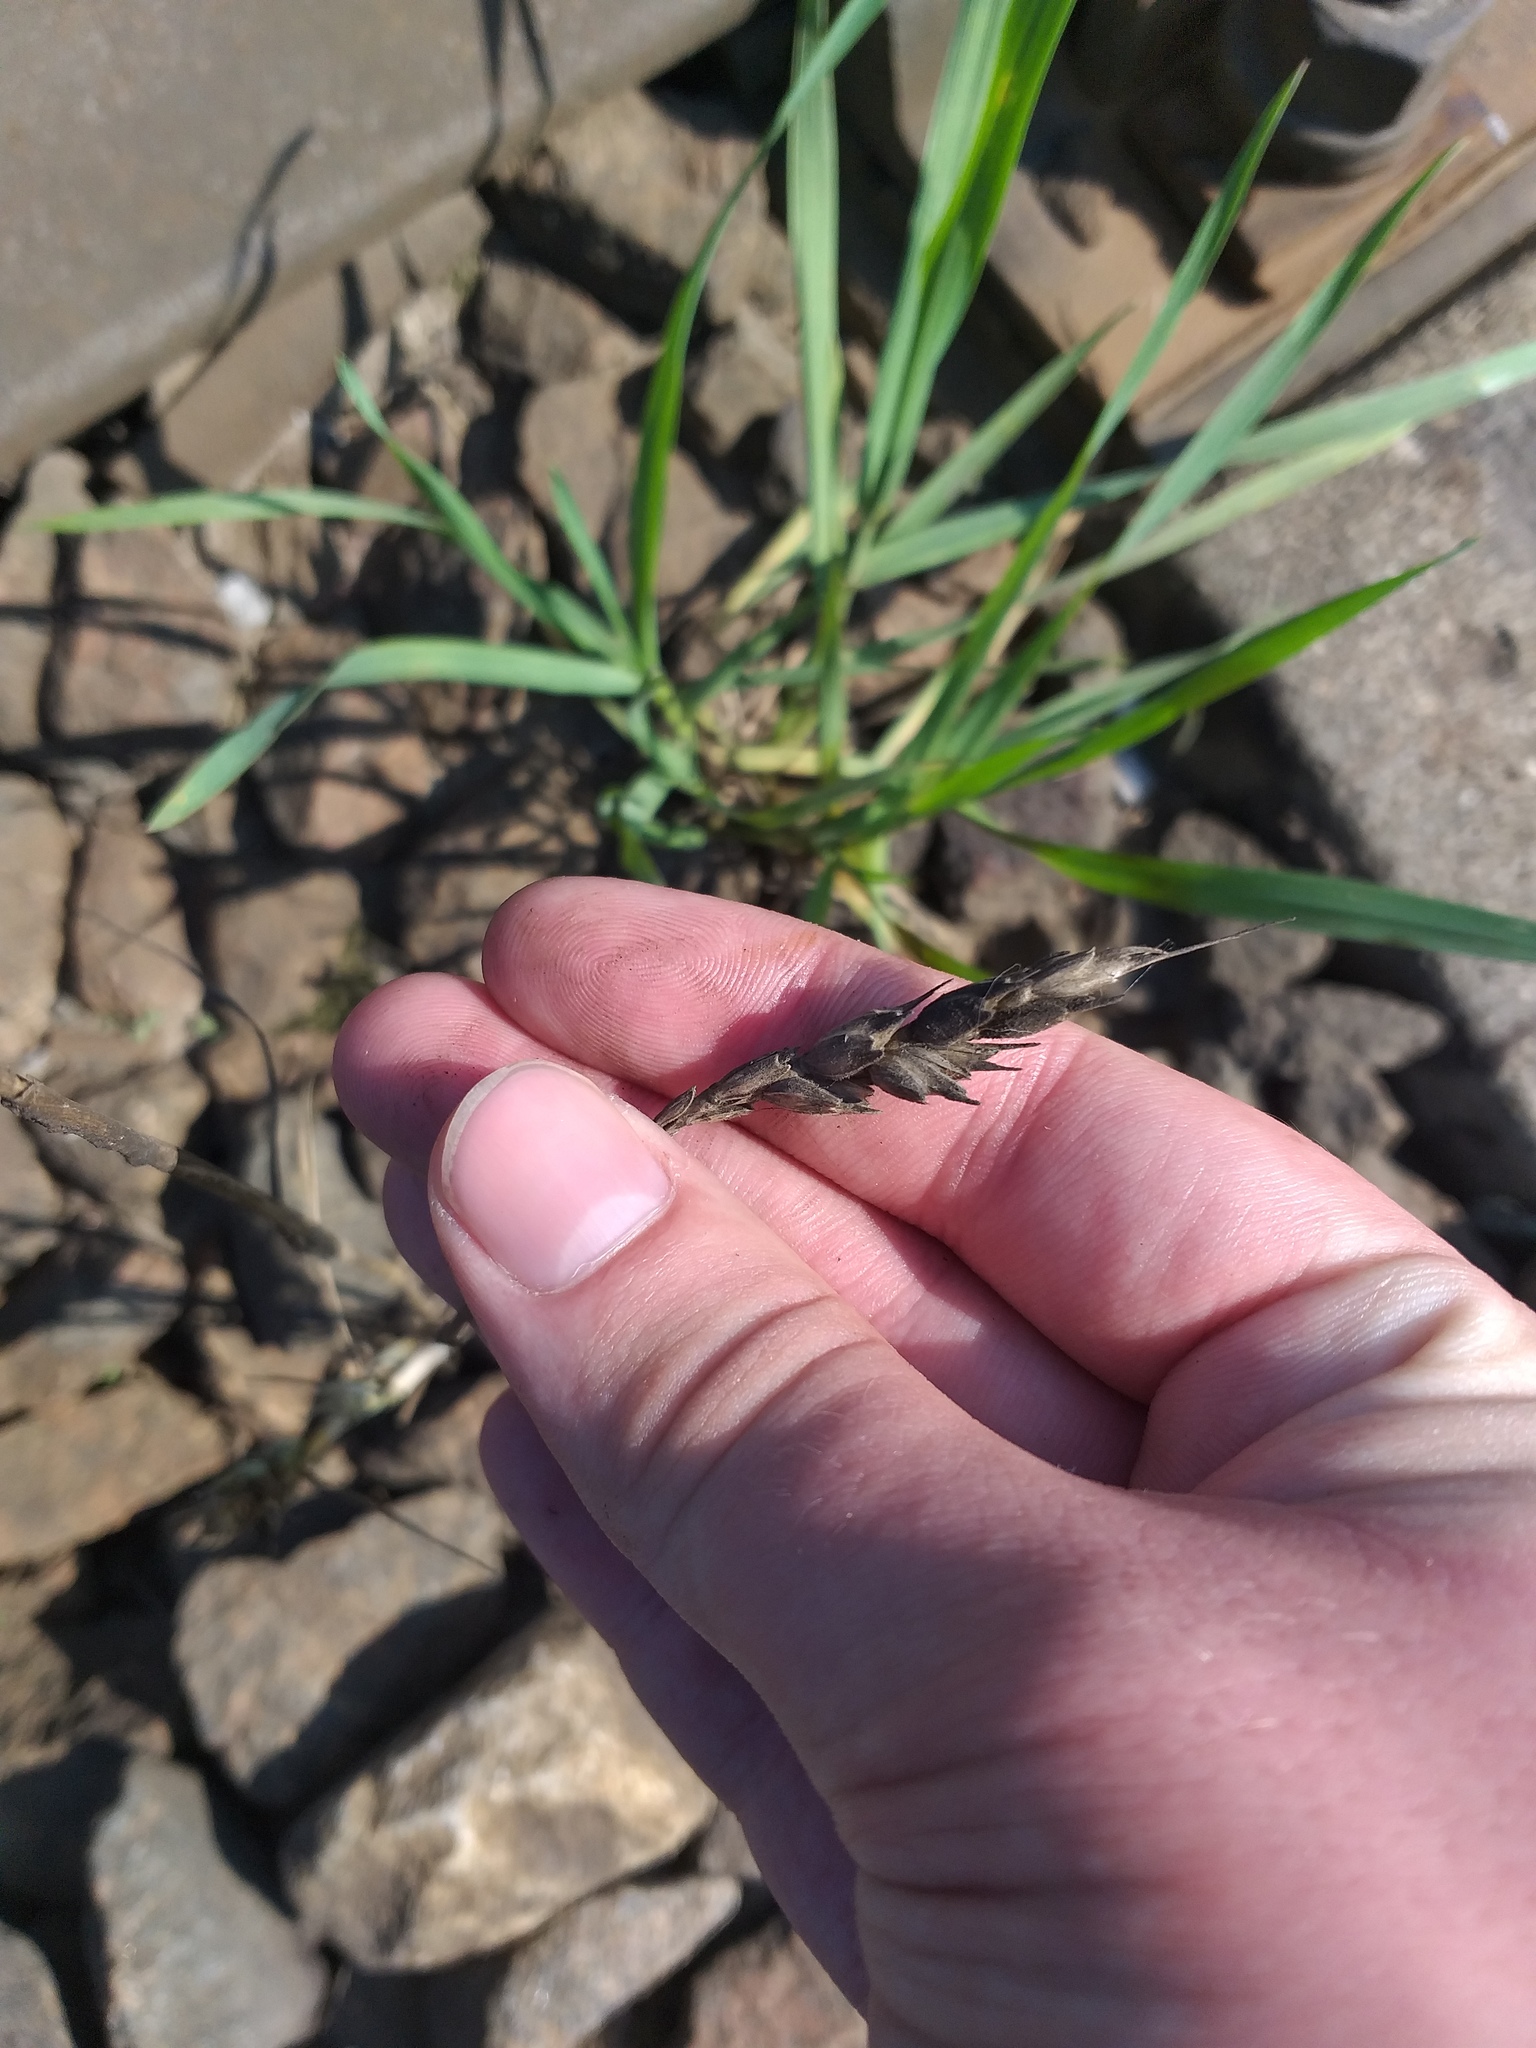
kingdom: Plantae
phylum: Tracheophyta
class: Liliopsida
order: Poales
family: Poaceae
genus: Triticum
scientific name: Triticum aestivum
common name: Common wheat
